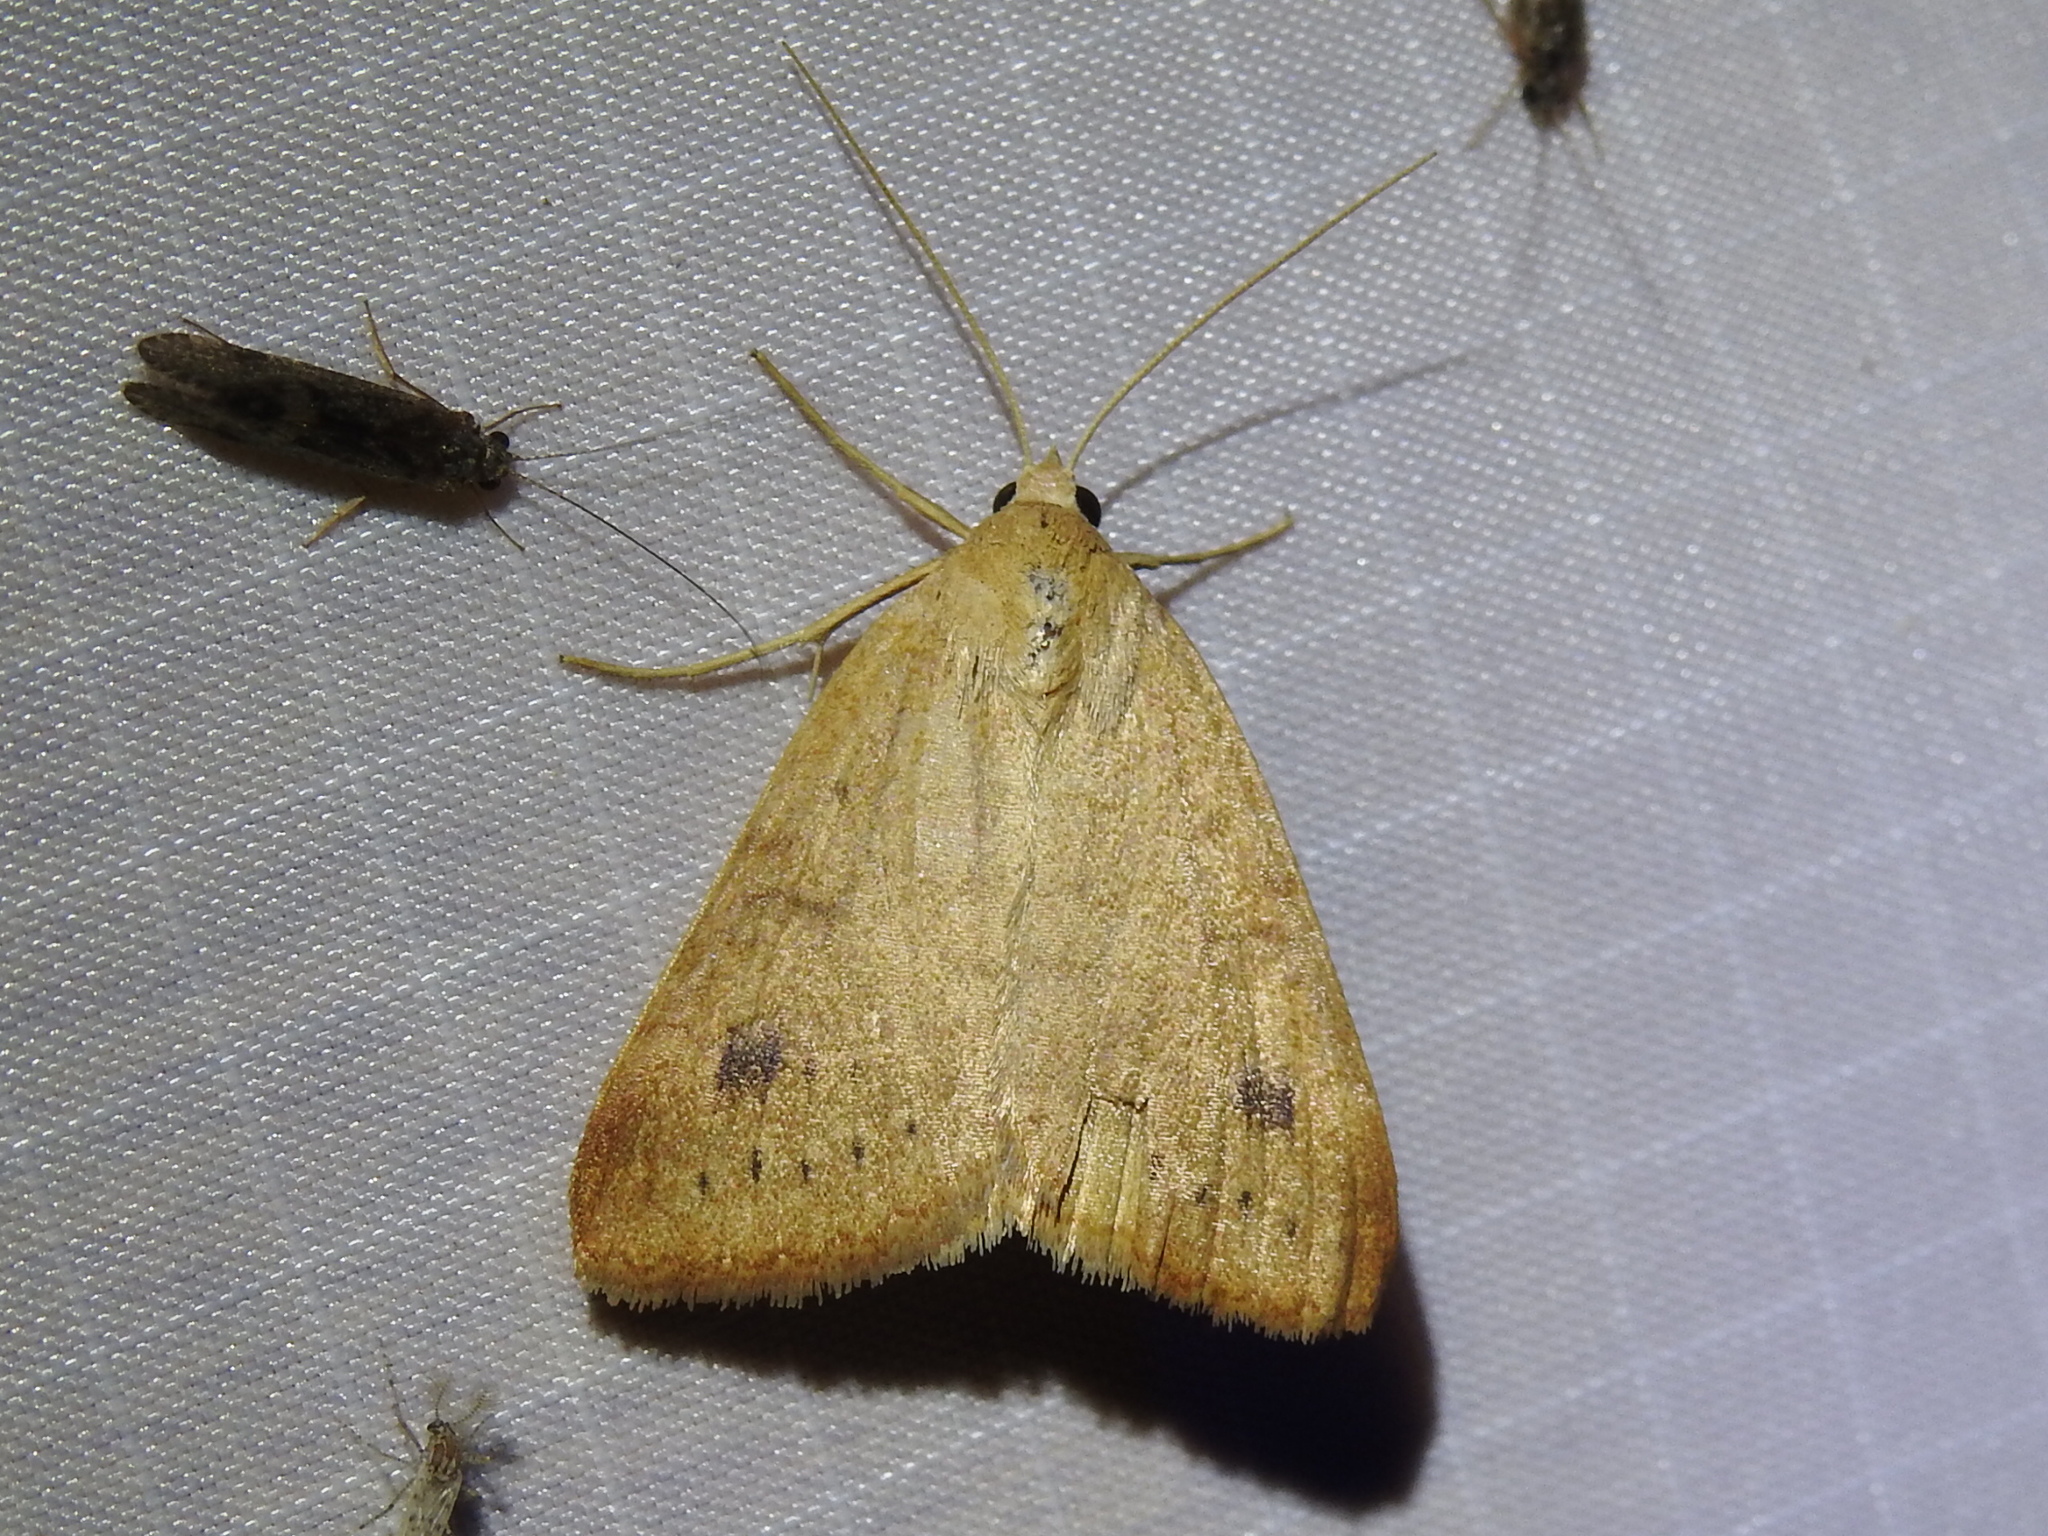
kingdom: Animalia
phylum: Arthropoda
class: Insecta
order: Lepidoptera
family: Erebidae
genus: Caenurgia
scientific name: Caenurgia chloropha
